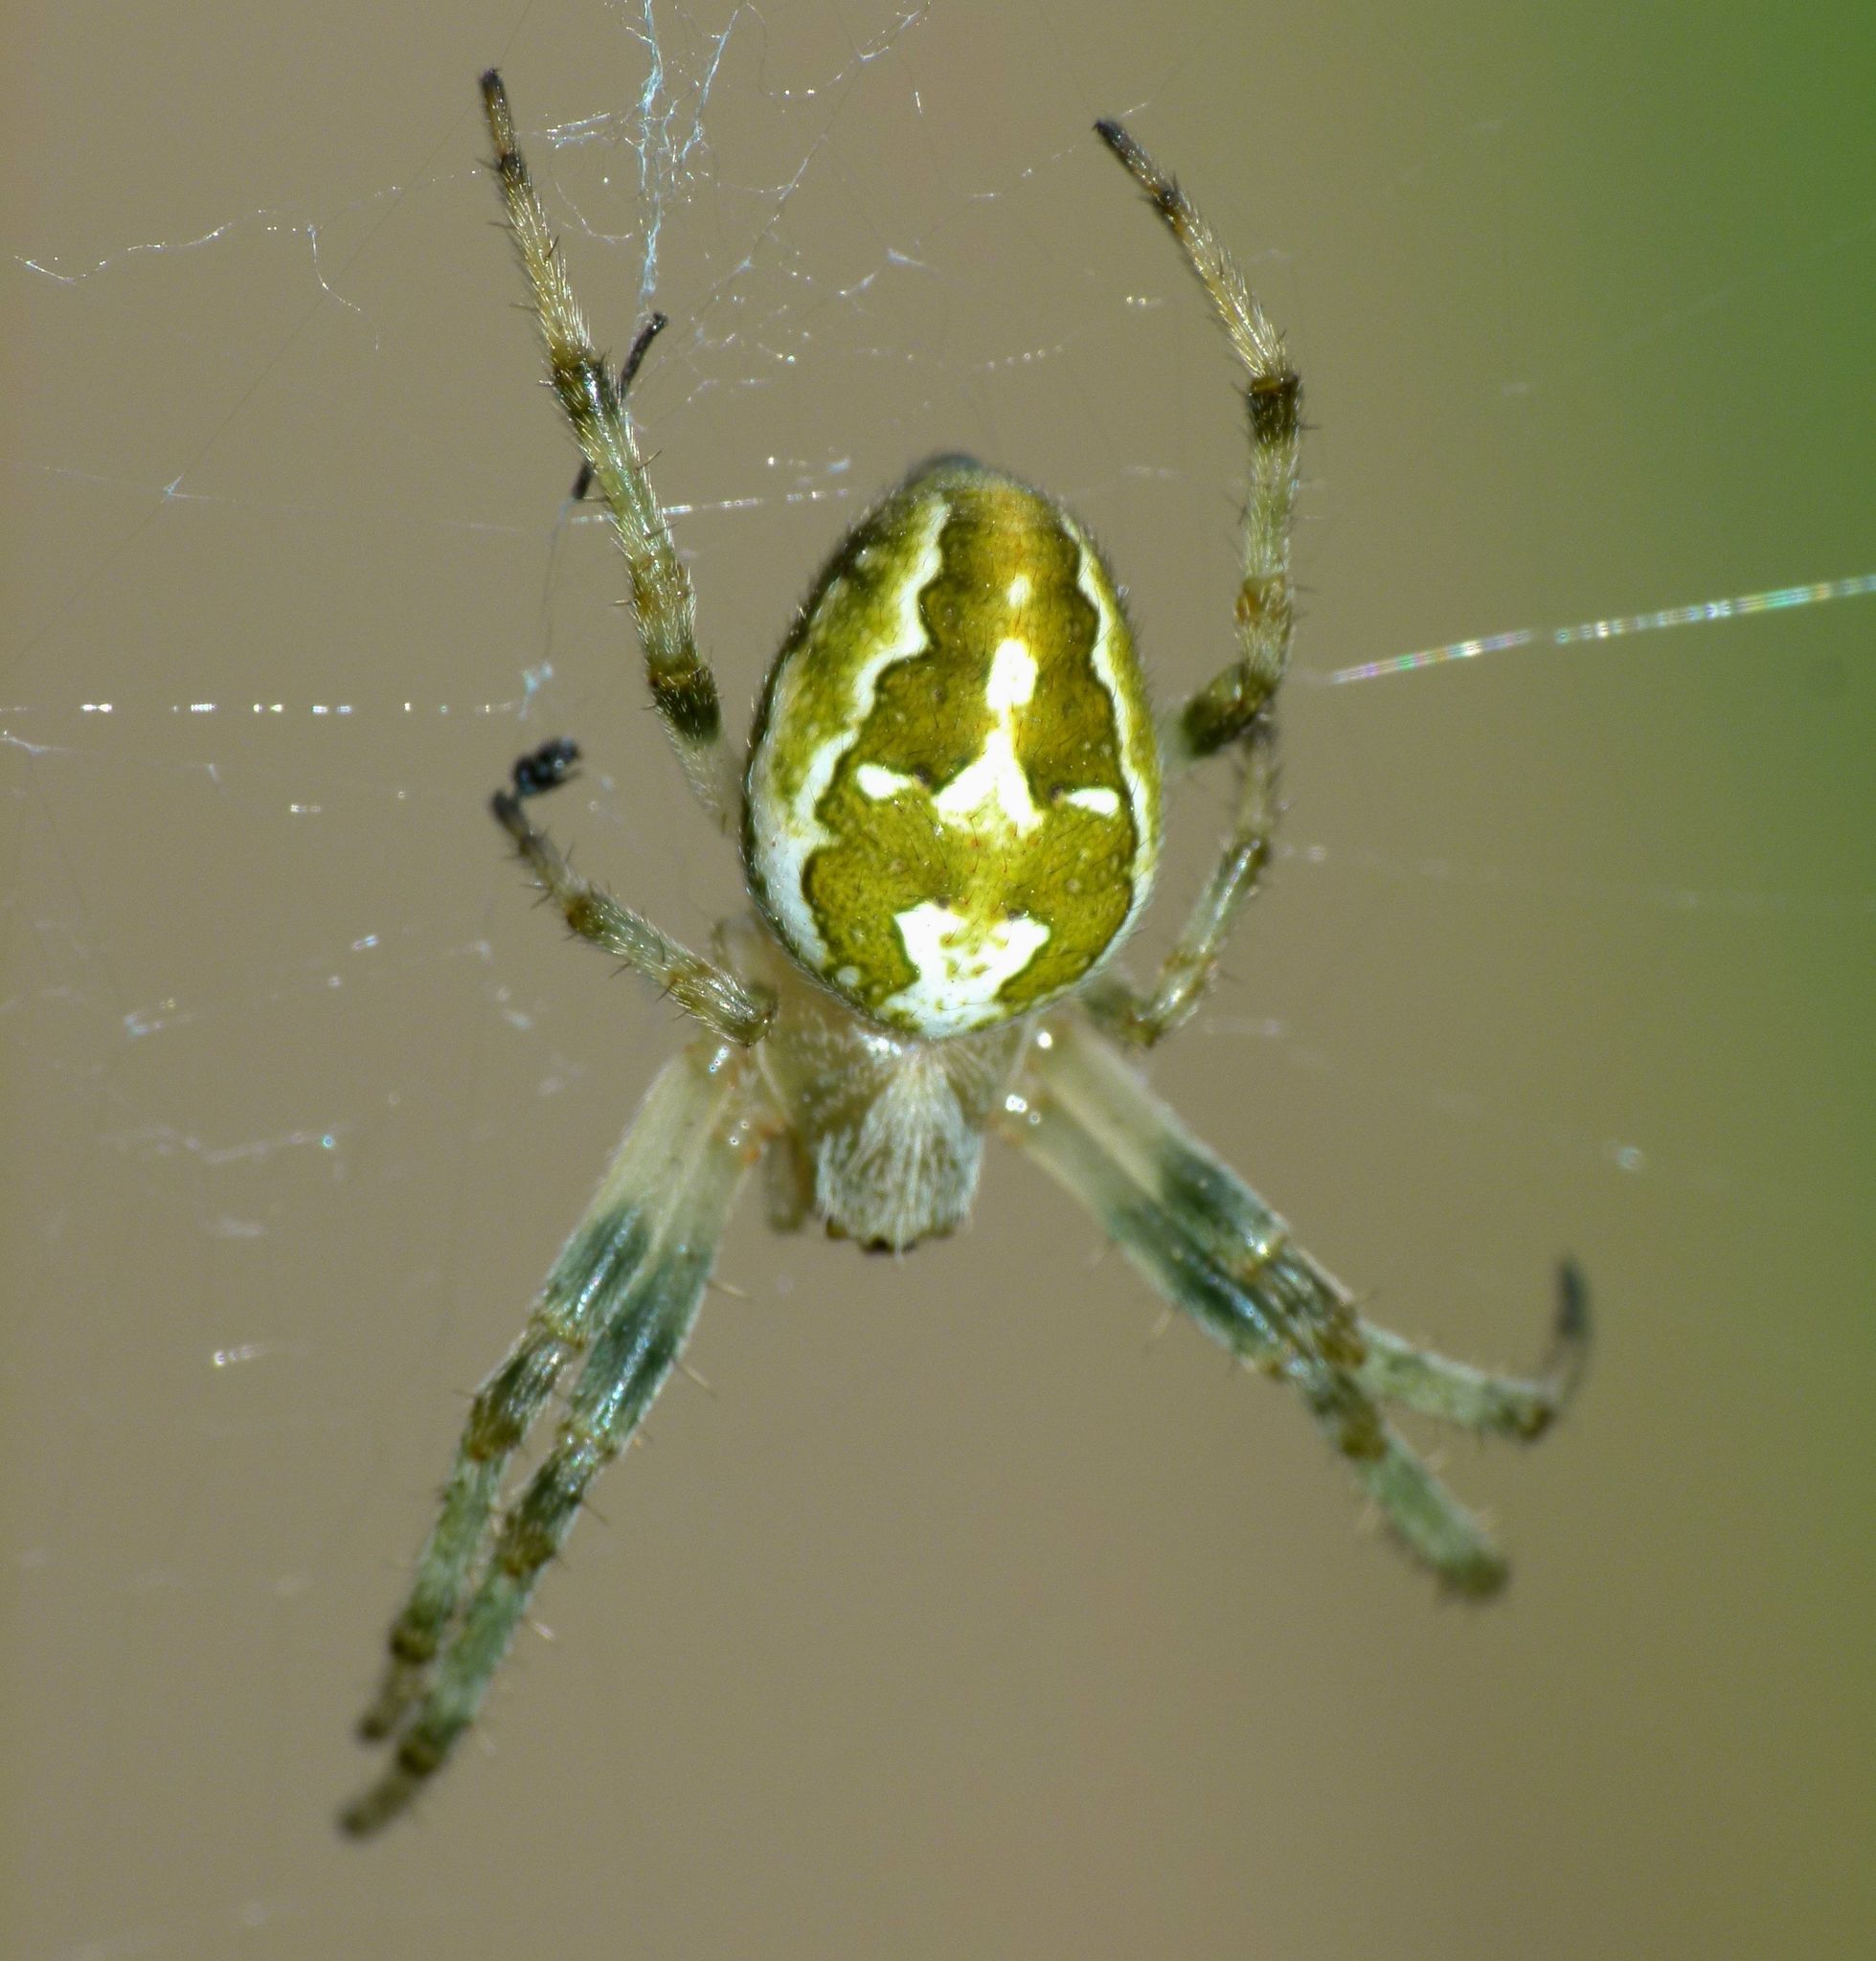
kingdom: Animalia
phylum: Arthropoda
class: Arachnida
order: Araneae
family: Araneidae
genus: Colaranea
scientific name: Colaranea verutum
